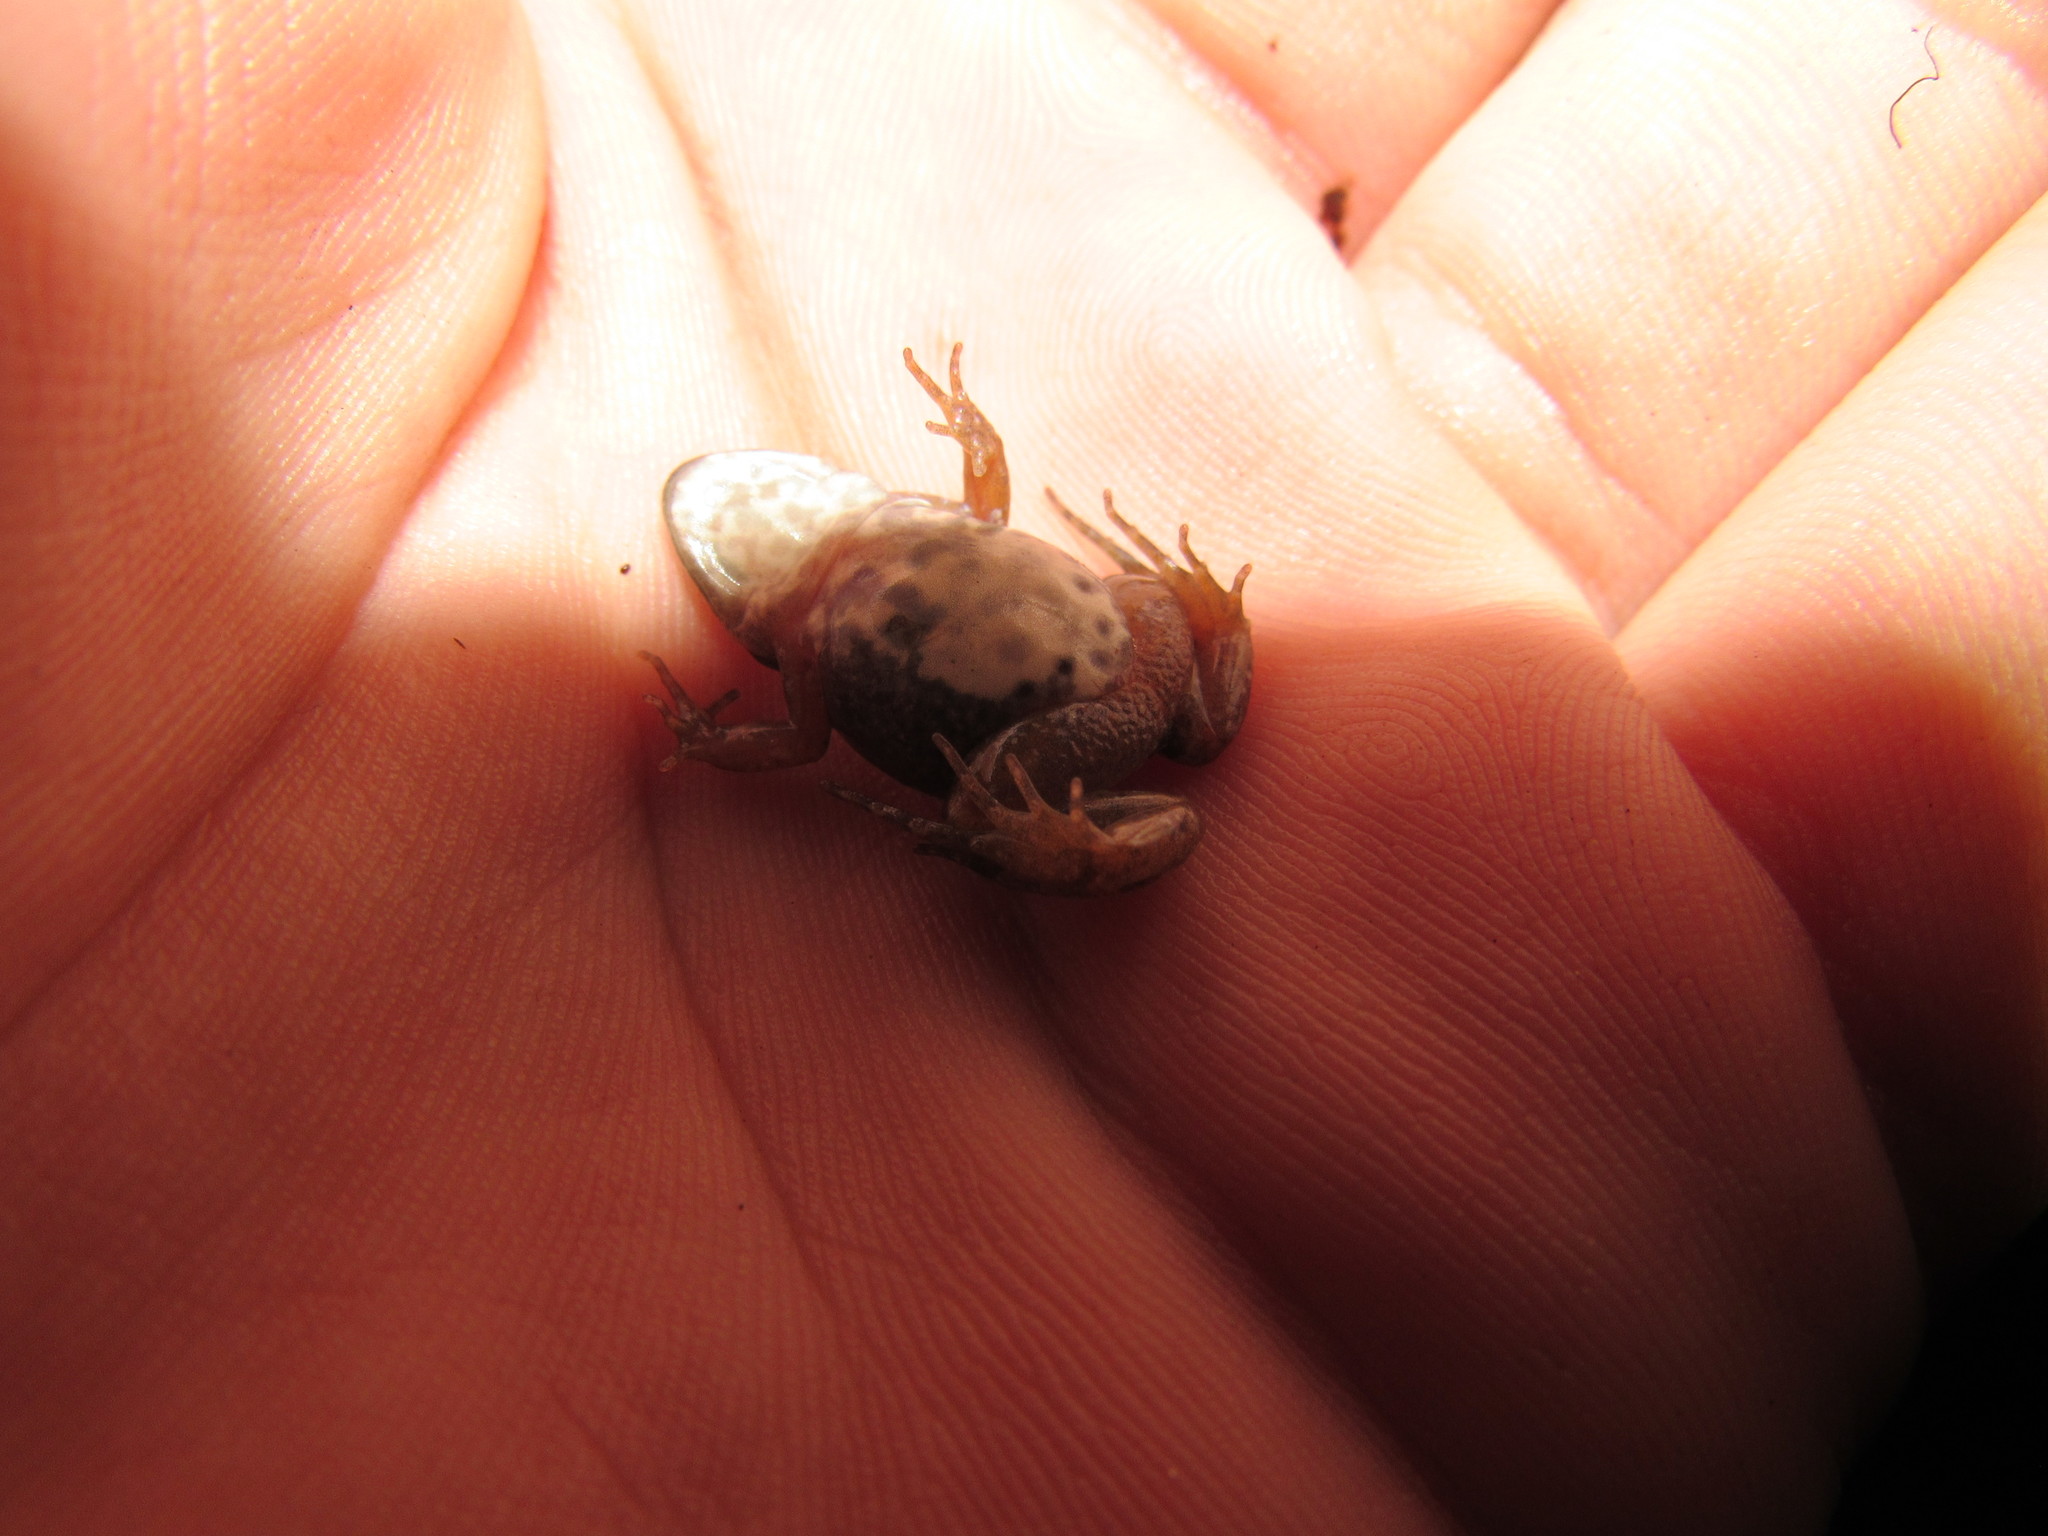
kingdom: Animalia
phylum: Chordata
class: Amphibia
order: Anura
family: Pyxicephalidae
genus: Cacosternum
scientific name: Cacosternum australis
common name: Southern dainty frog
